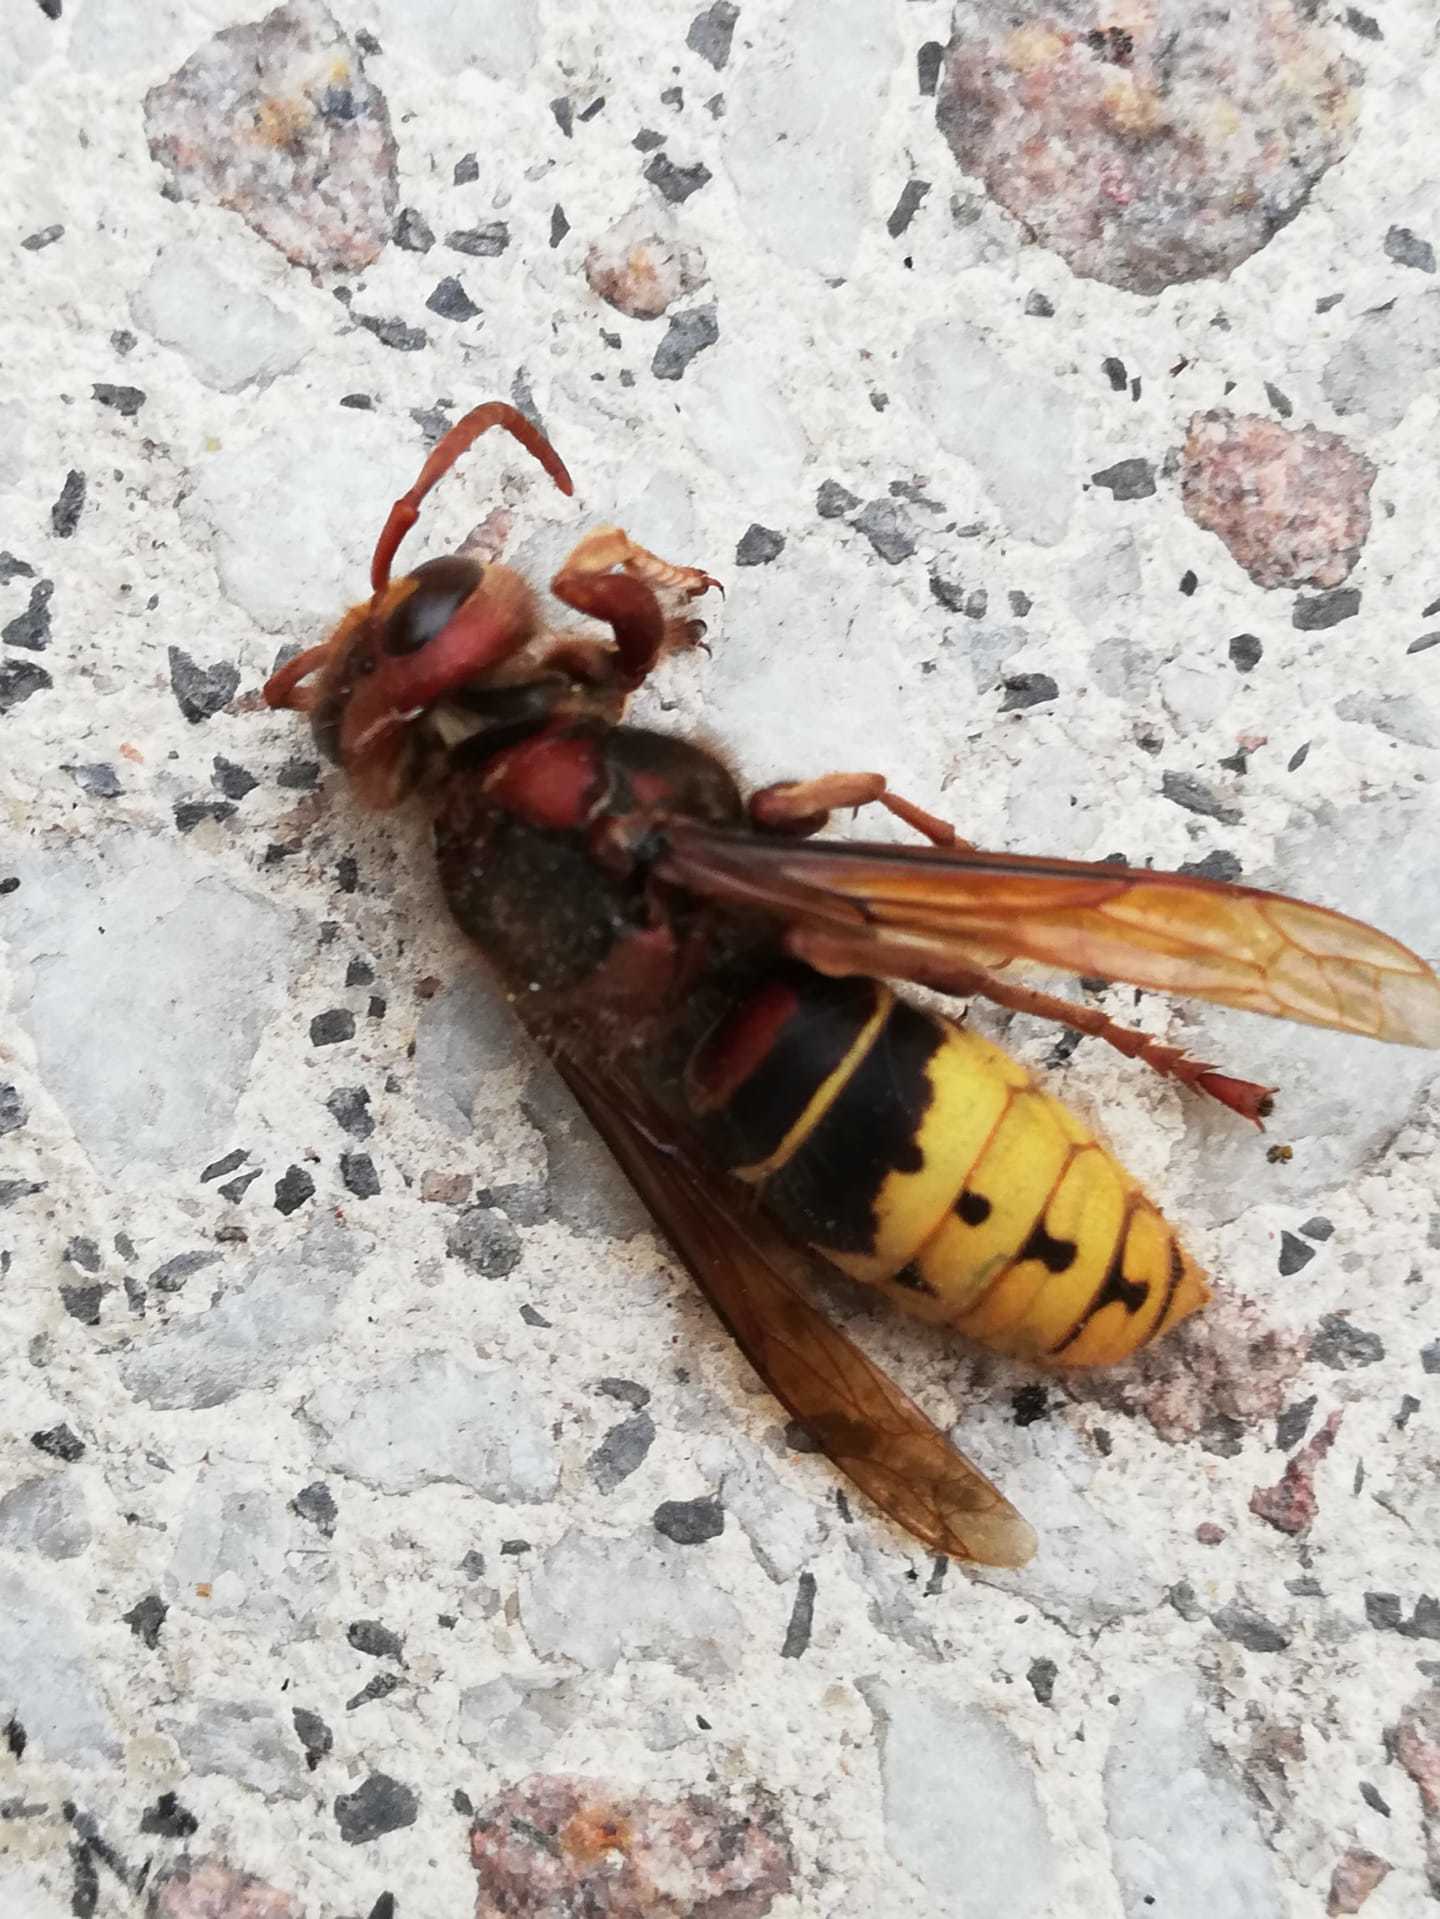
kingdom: Animalia
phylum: Arthropoda
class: Insecta
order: Hymenoptera
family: Vespidae
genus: Vespa
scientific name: Vespa crabro
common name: Hornet
